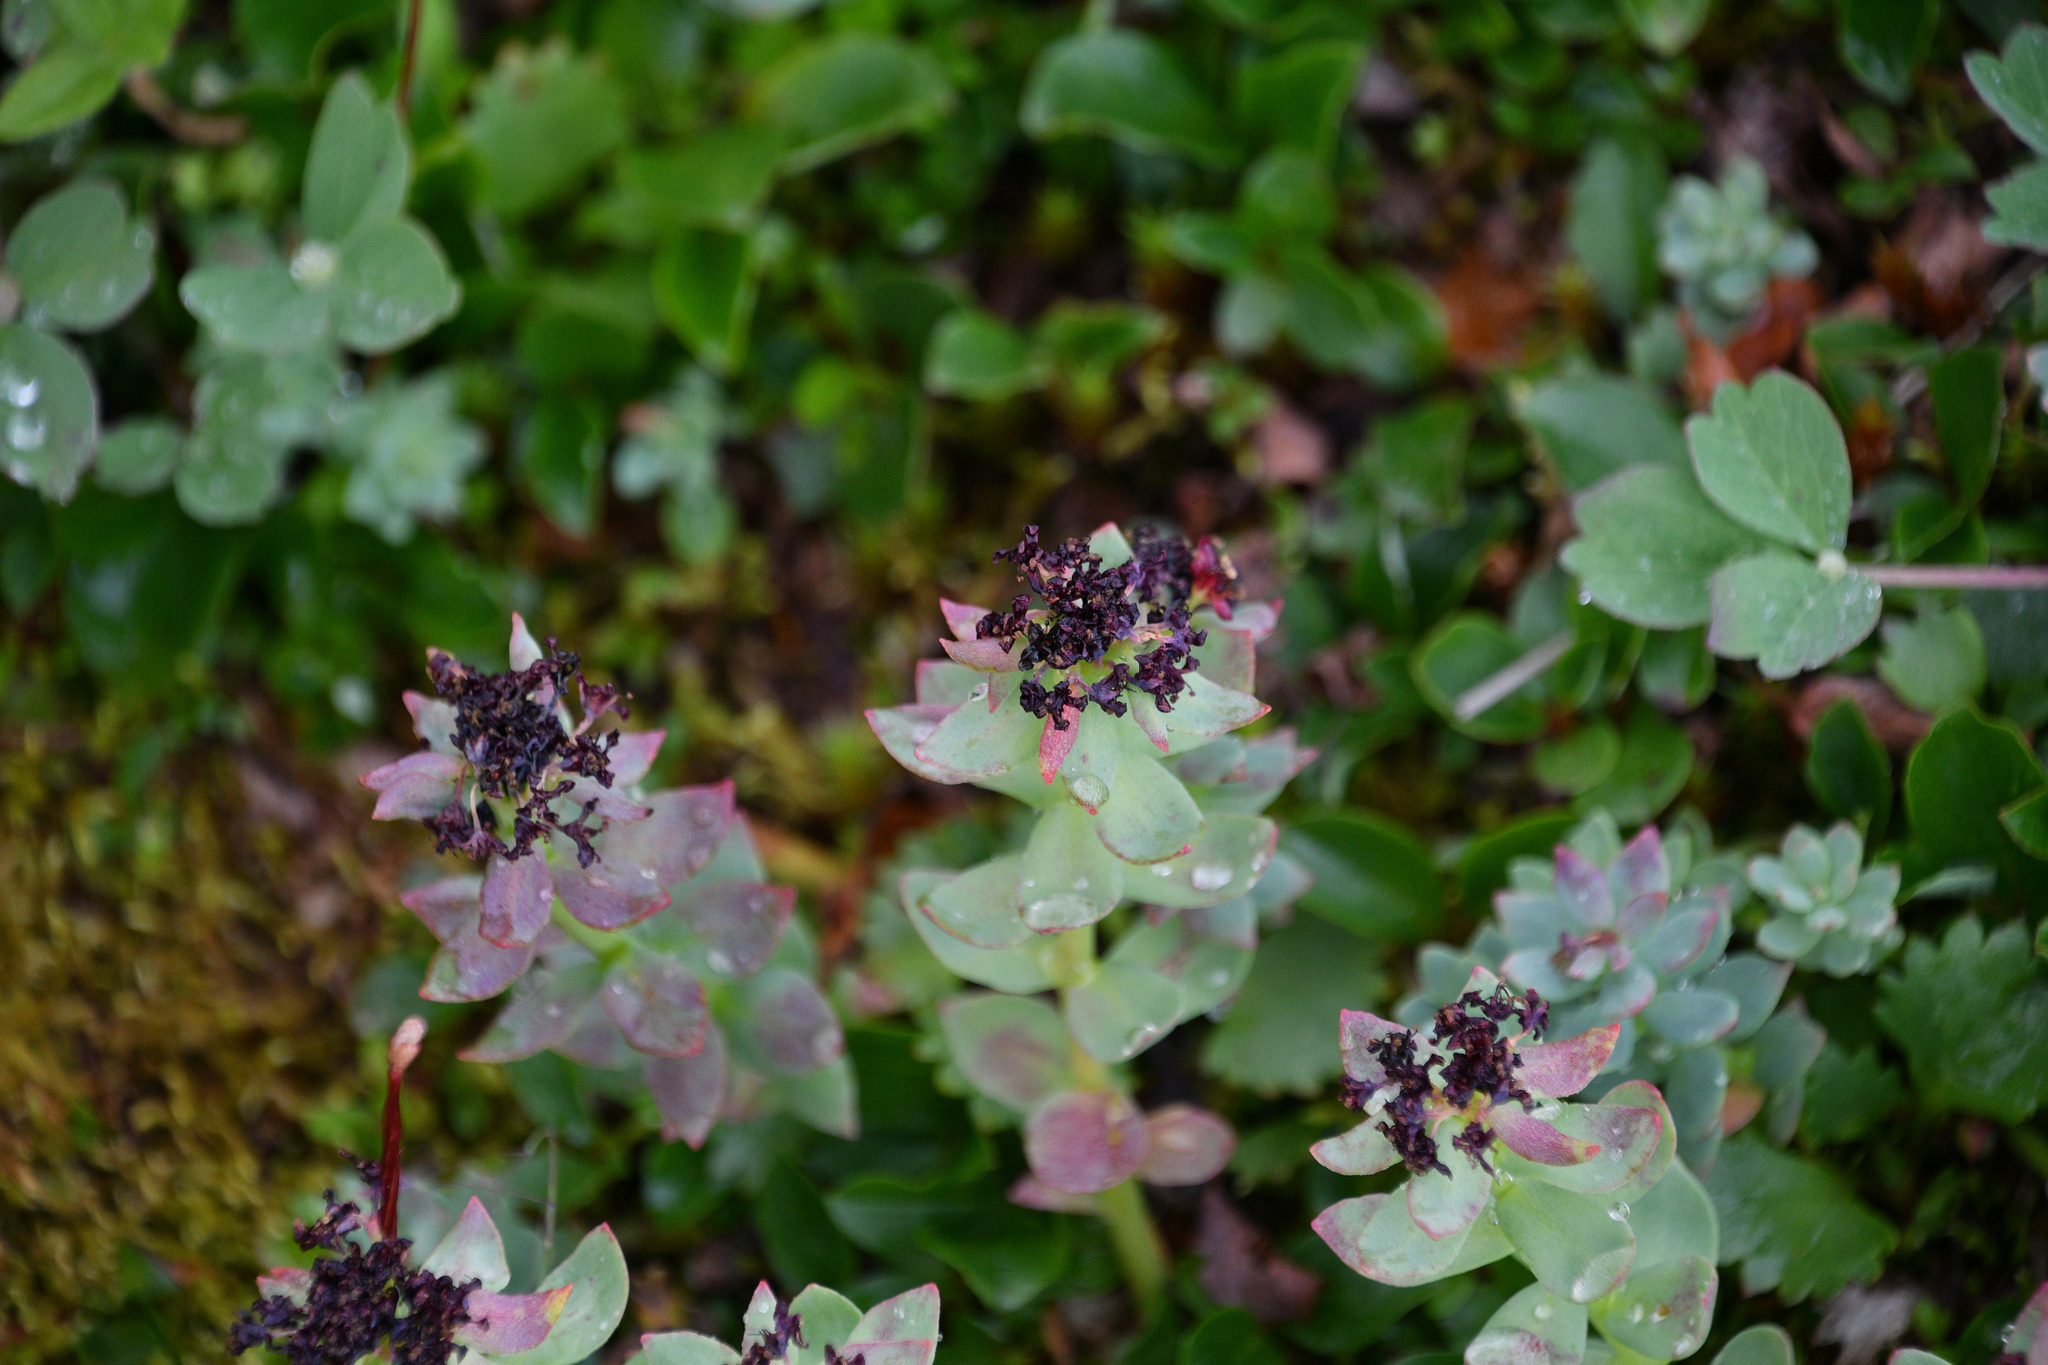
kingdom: Plantae
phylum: Tracheophyta
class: Magnoliopsida
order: Saxifragales
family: Crassulaceae
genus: Rhodiola
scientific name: Rhodiola integrifolia
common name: Western roseroot
